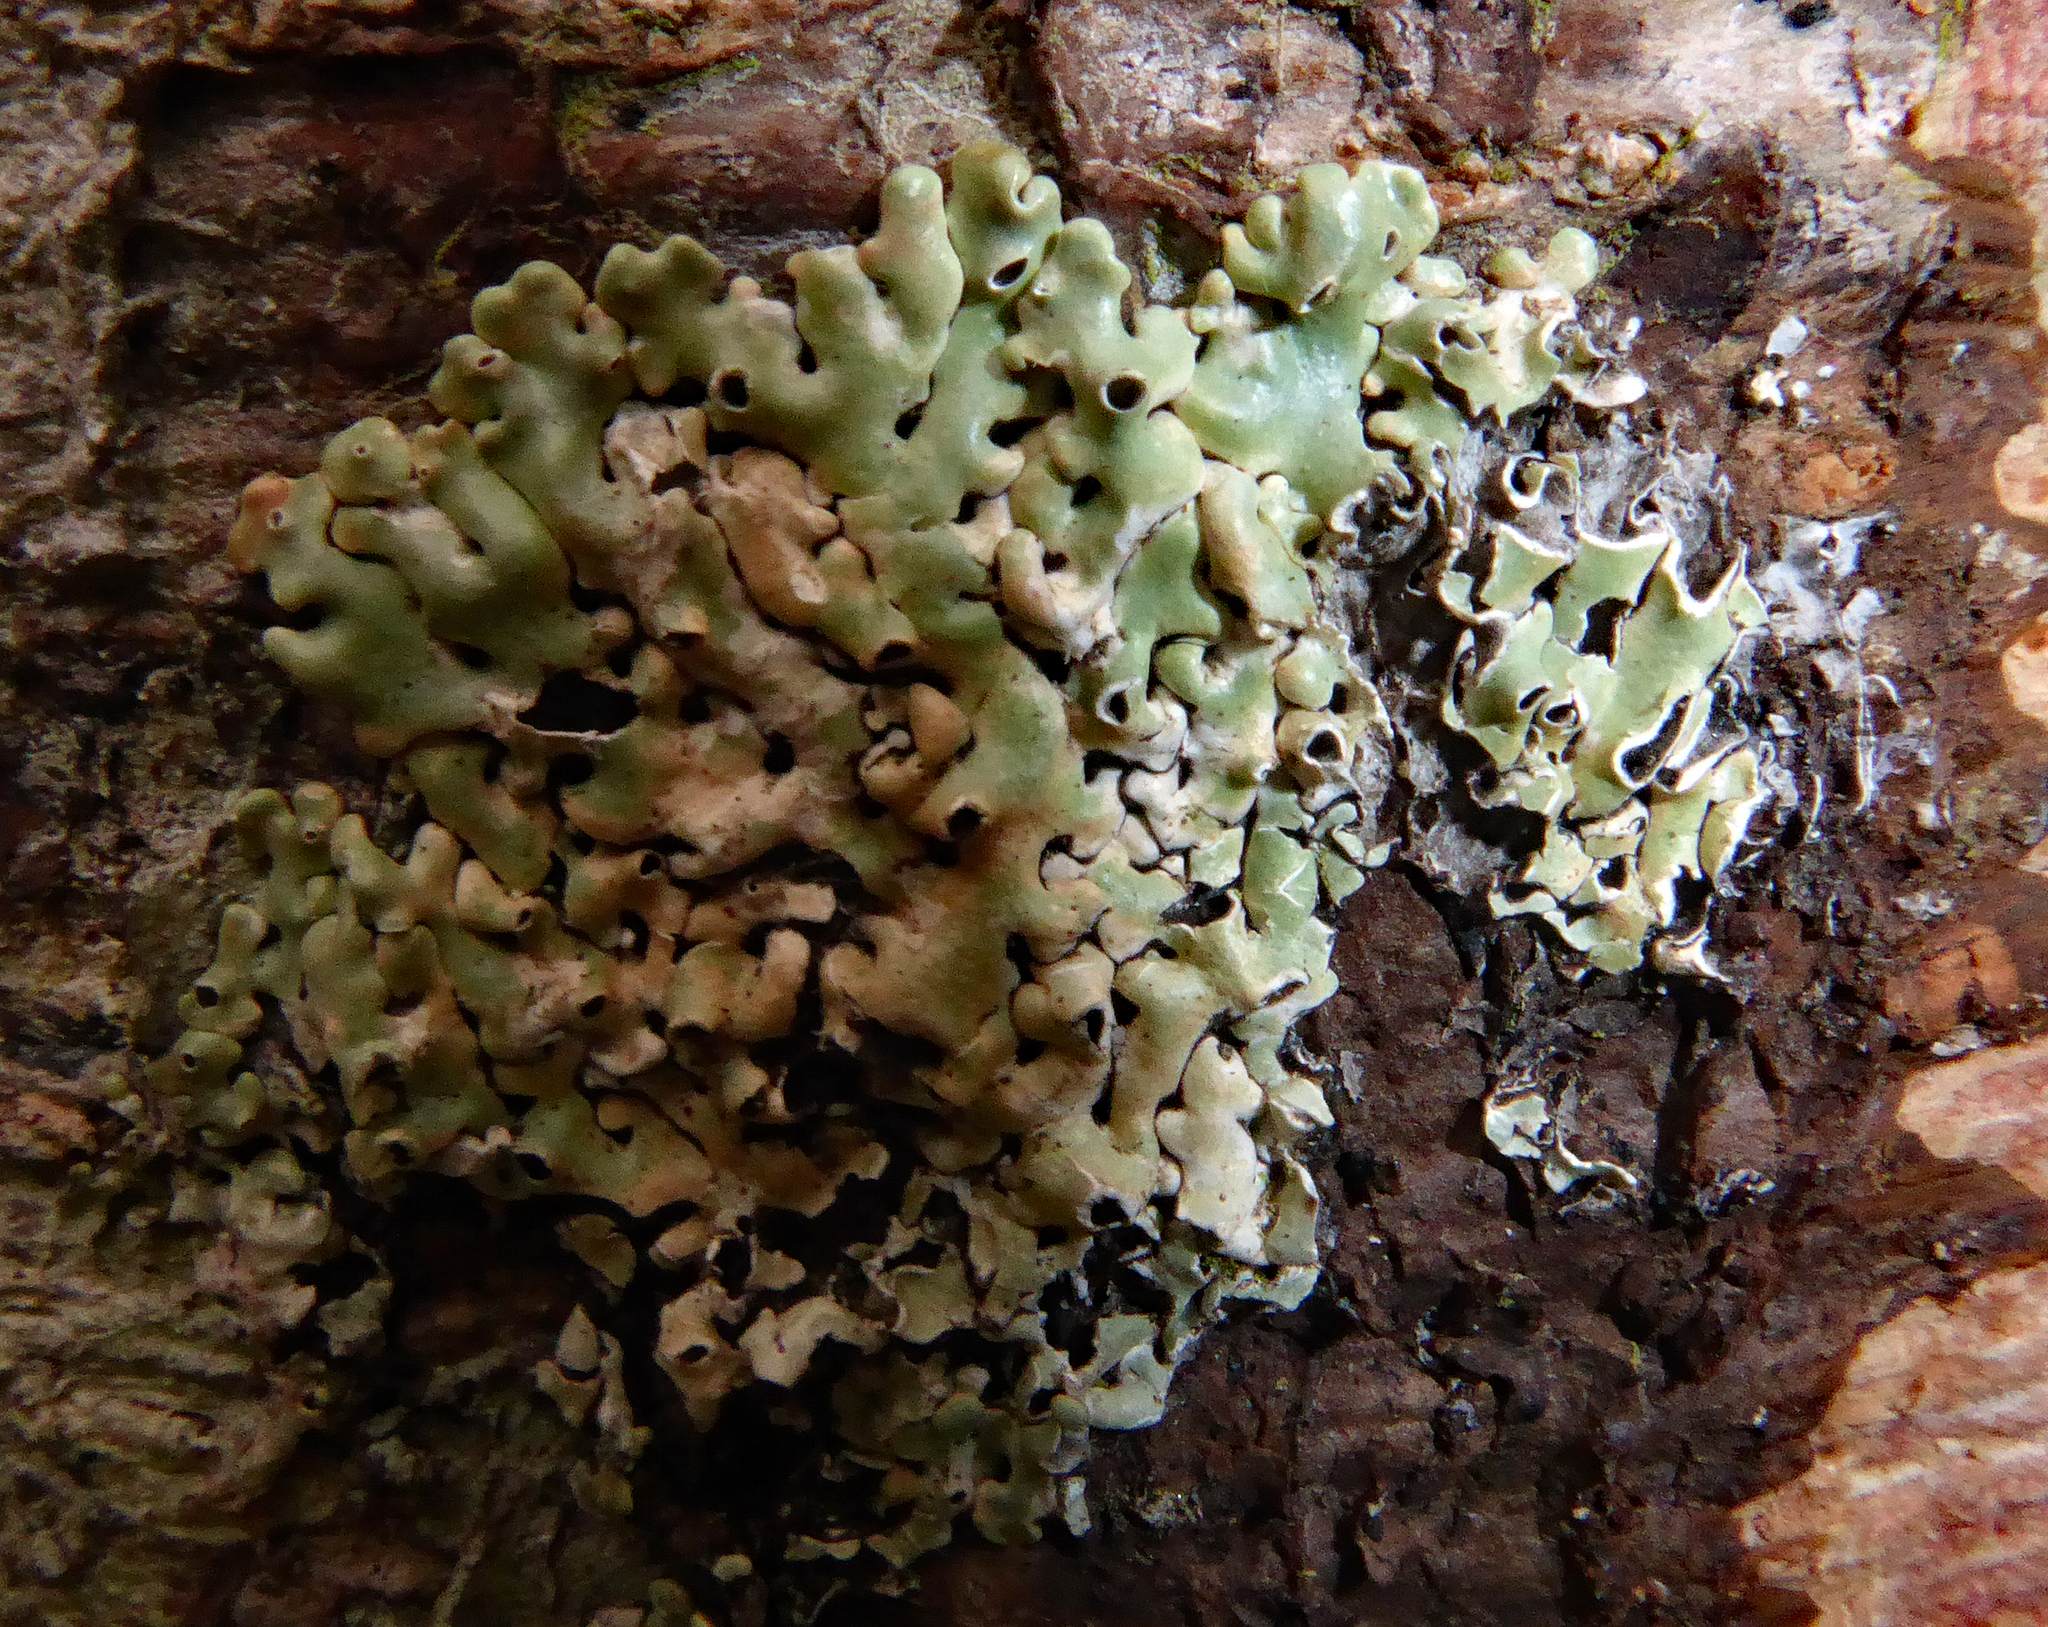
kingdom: Fungi
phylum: Ascomycota
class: Lecanoromycetes
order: Lecanorales
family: Parmeliaceae
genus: Menegazzia
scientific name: Menegazzia neozelandica
